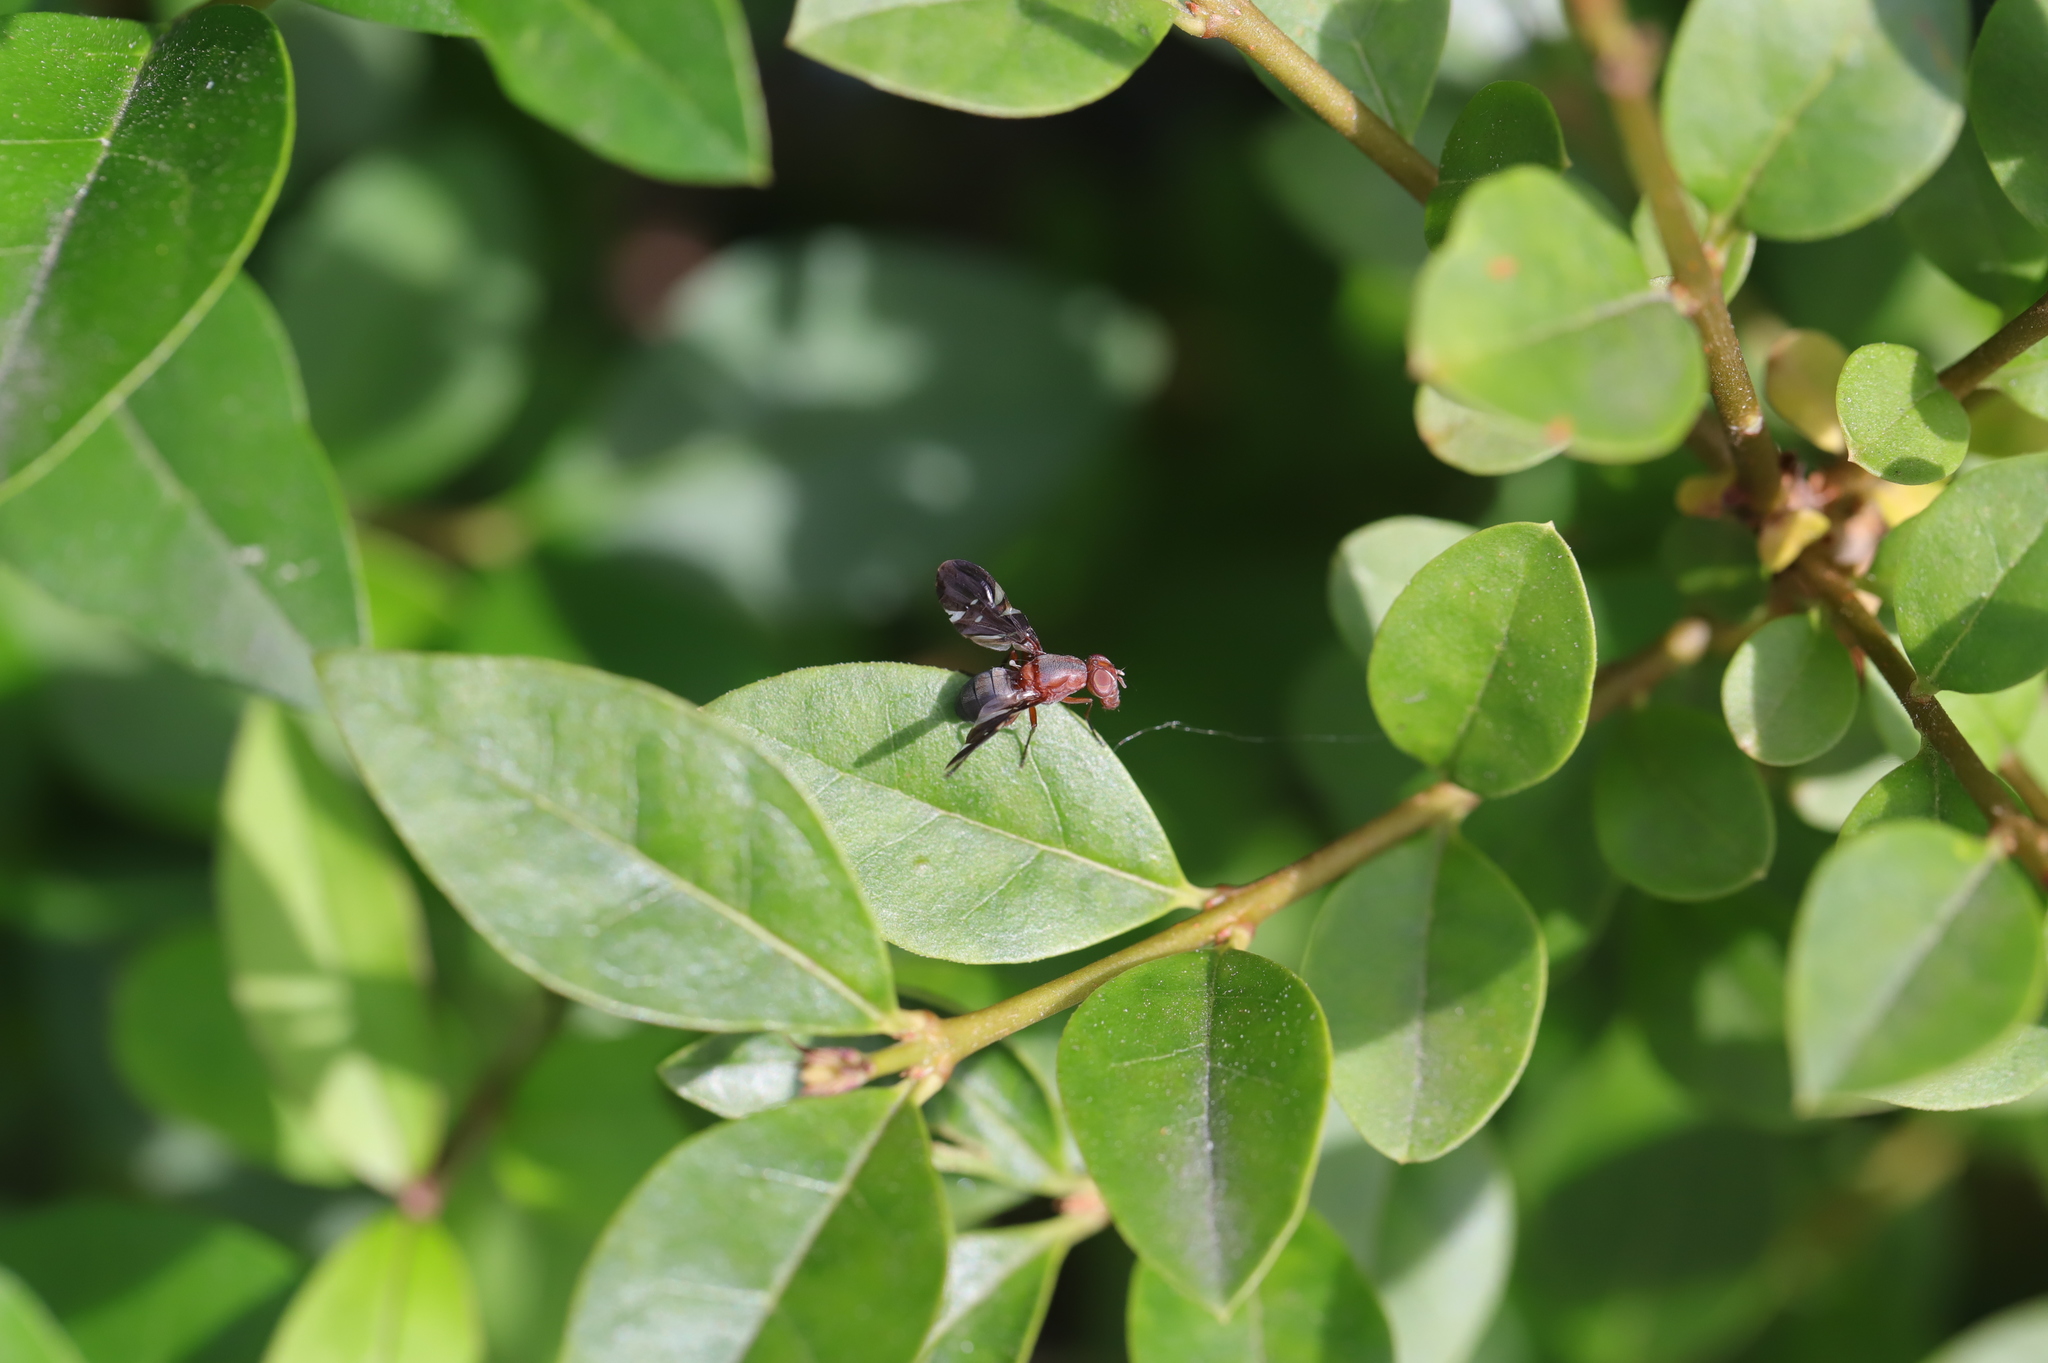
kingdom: Animalia
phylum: Arthropoda
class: Insecta
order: Diptera
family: Ulidiidae
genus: Delphinia
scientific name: Delphinia picta
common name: Common picture-winged fly
